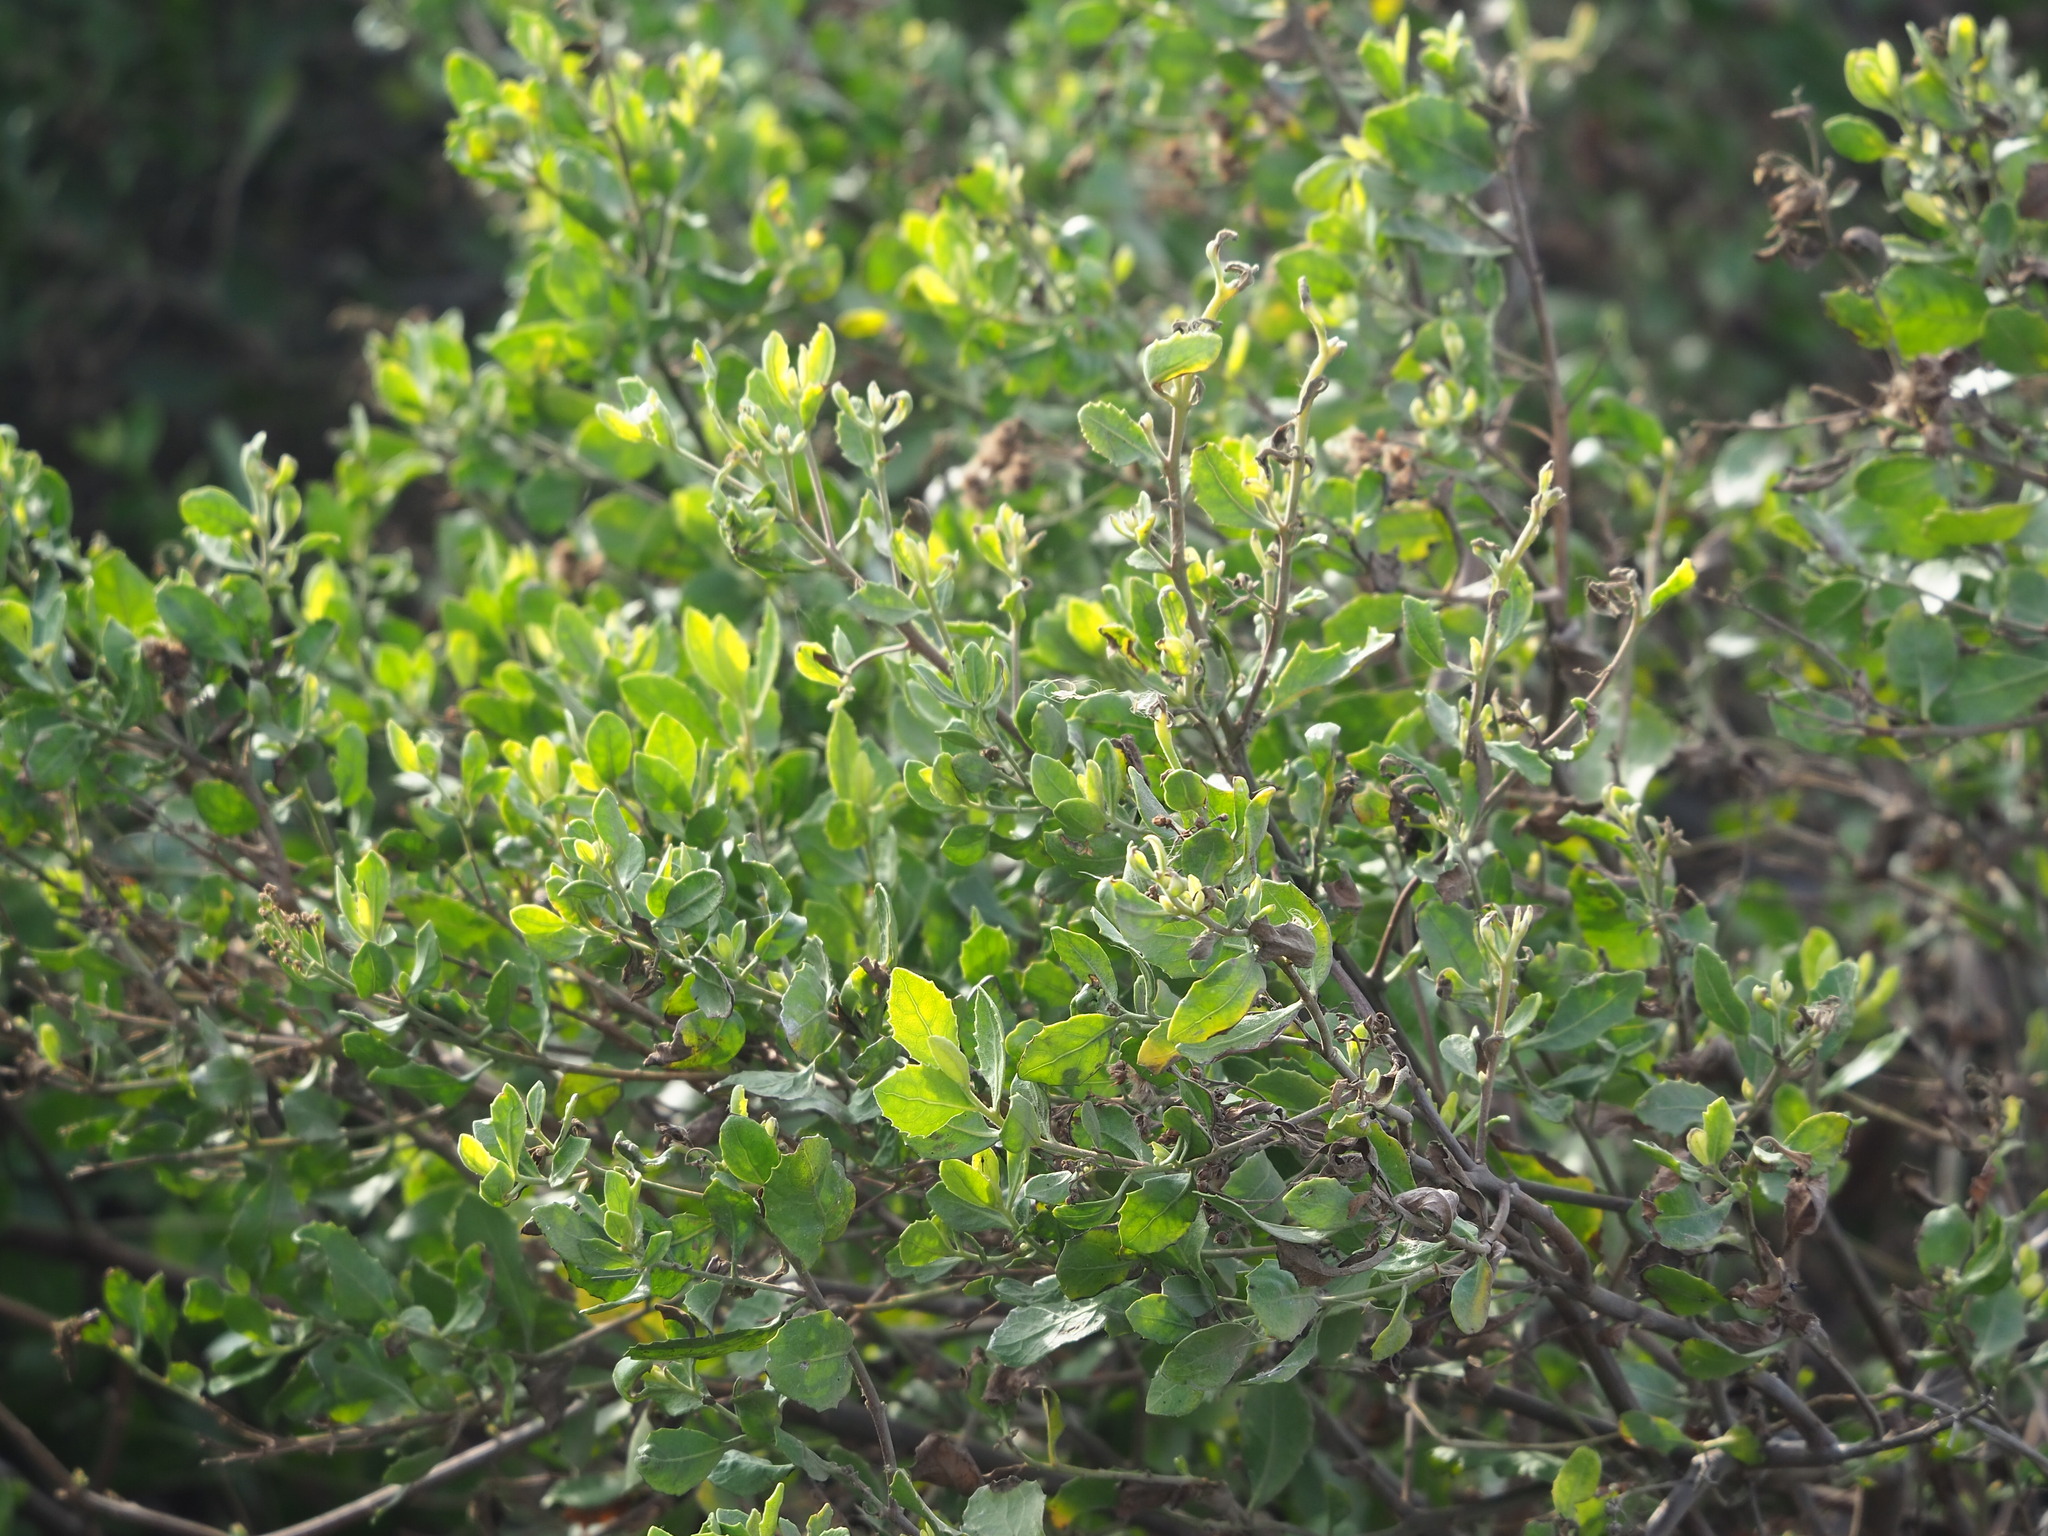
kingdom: Plantae
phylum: Tracheophyta
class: Magnoliopsida
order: Asterales
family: Asteraceae
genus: Pluchea
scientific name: Pluchea indica
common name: Indian fleabane
